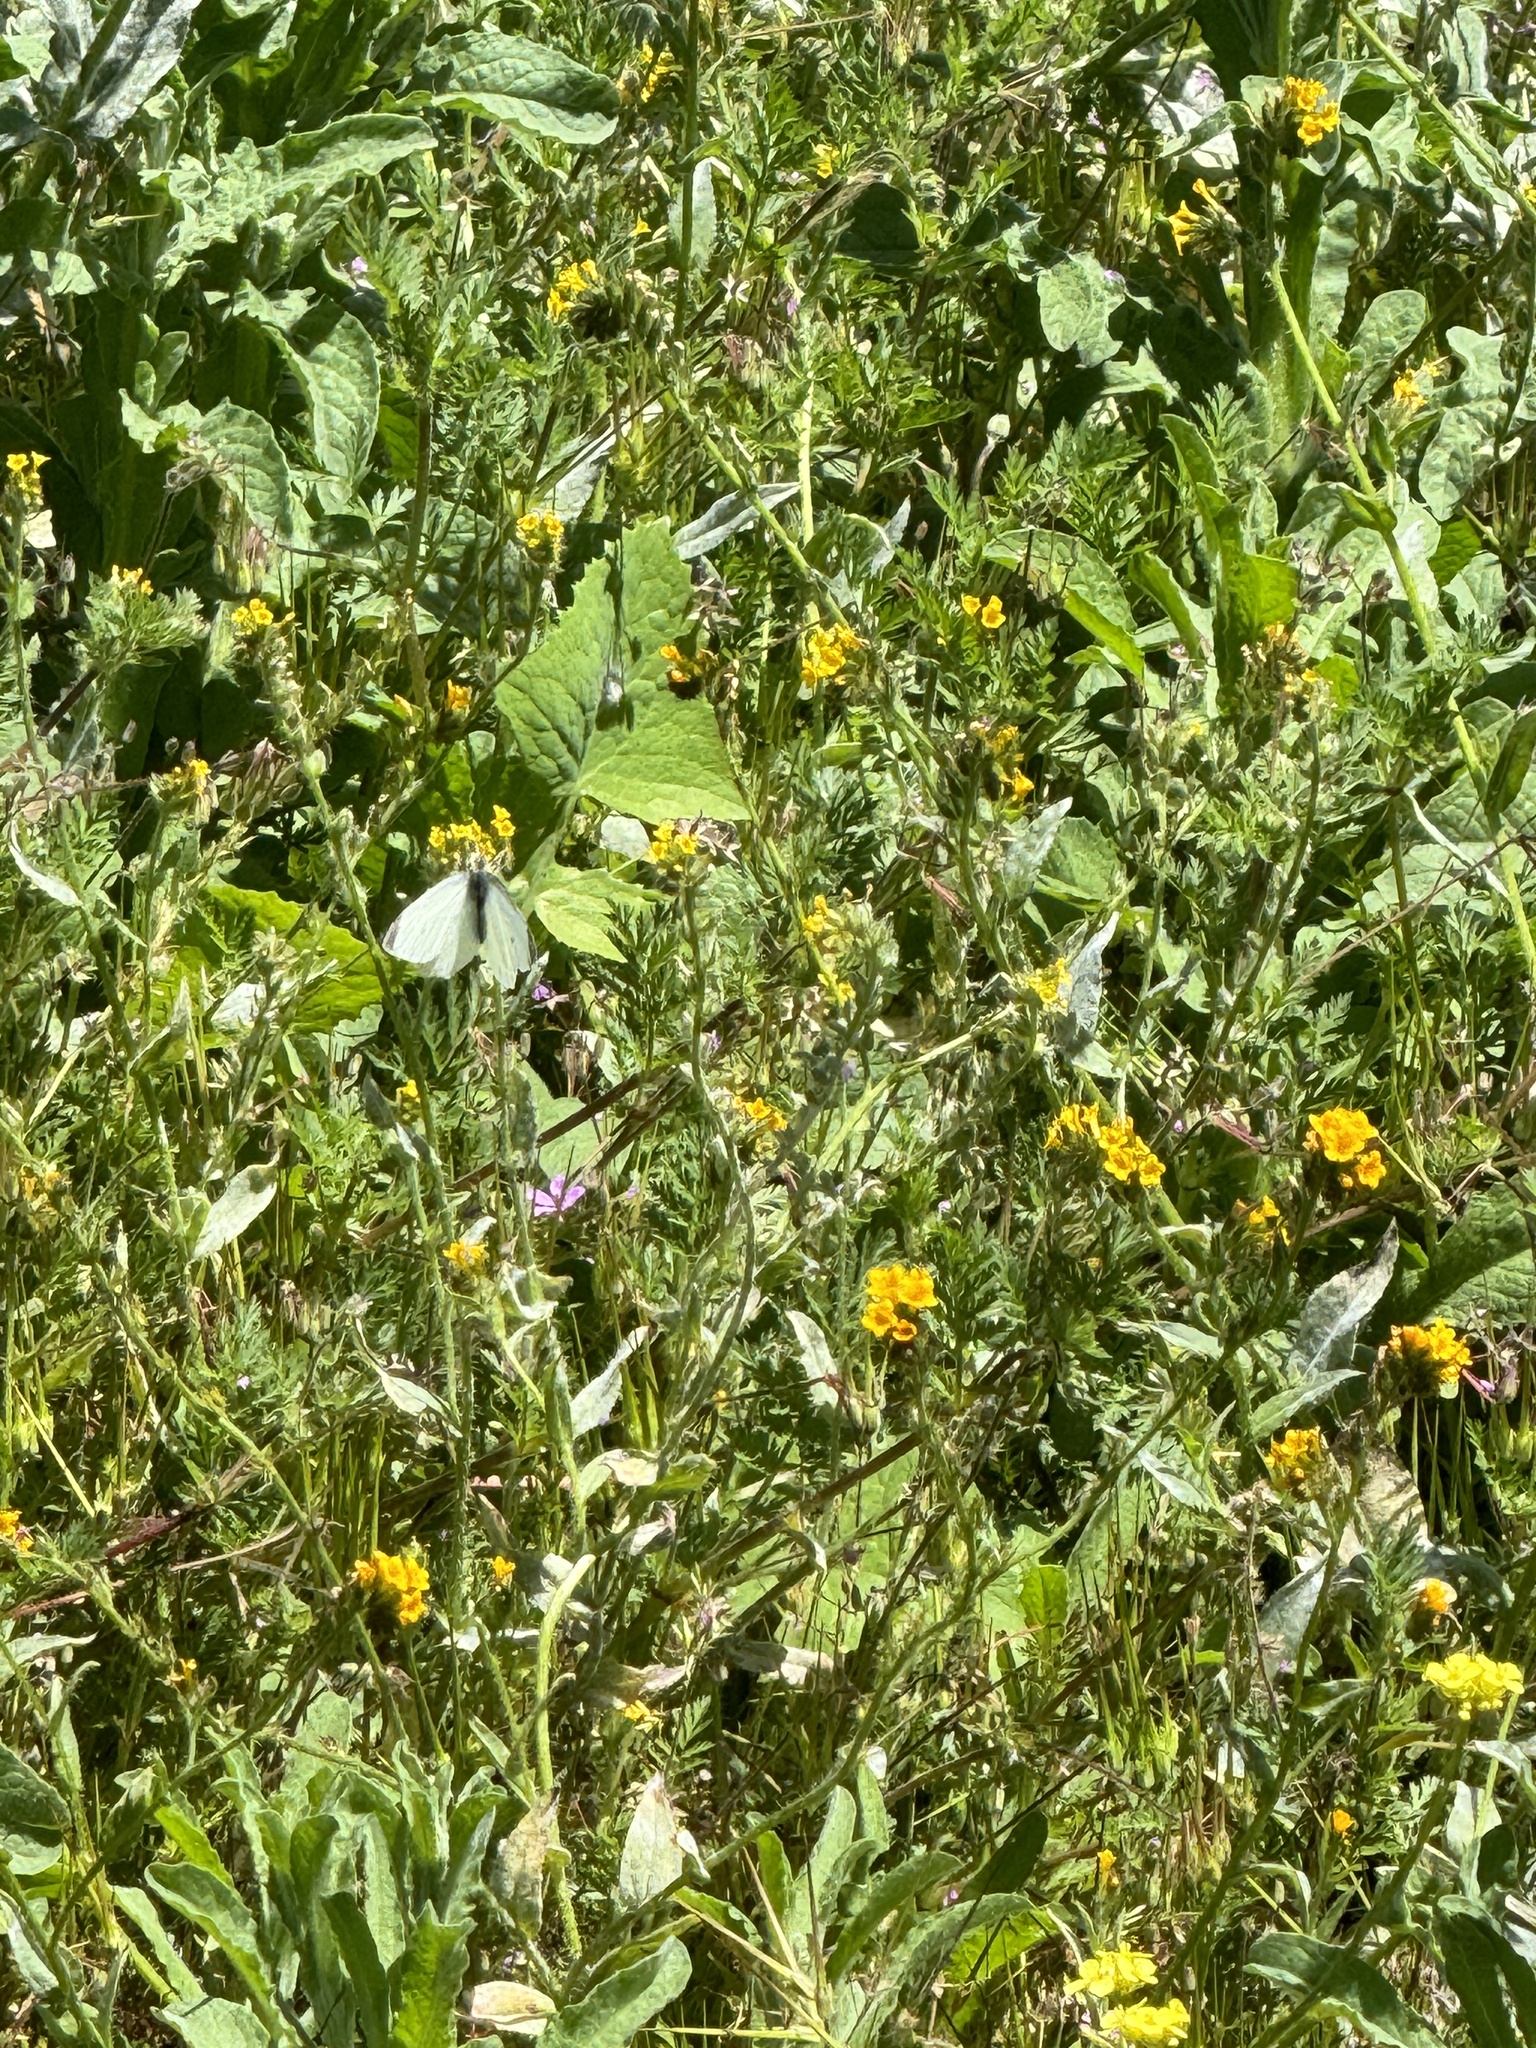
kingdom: Animalia
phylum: Arthropoda
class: Insecta
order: Lepidoptera
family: Pieridae
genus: Pieris
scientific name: Pieris rapae
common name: Small white
